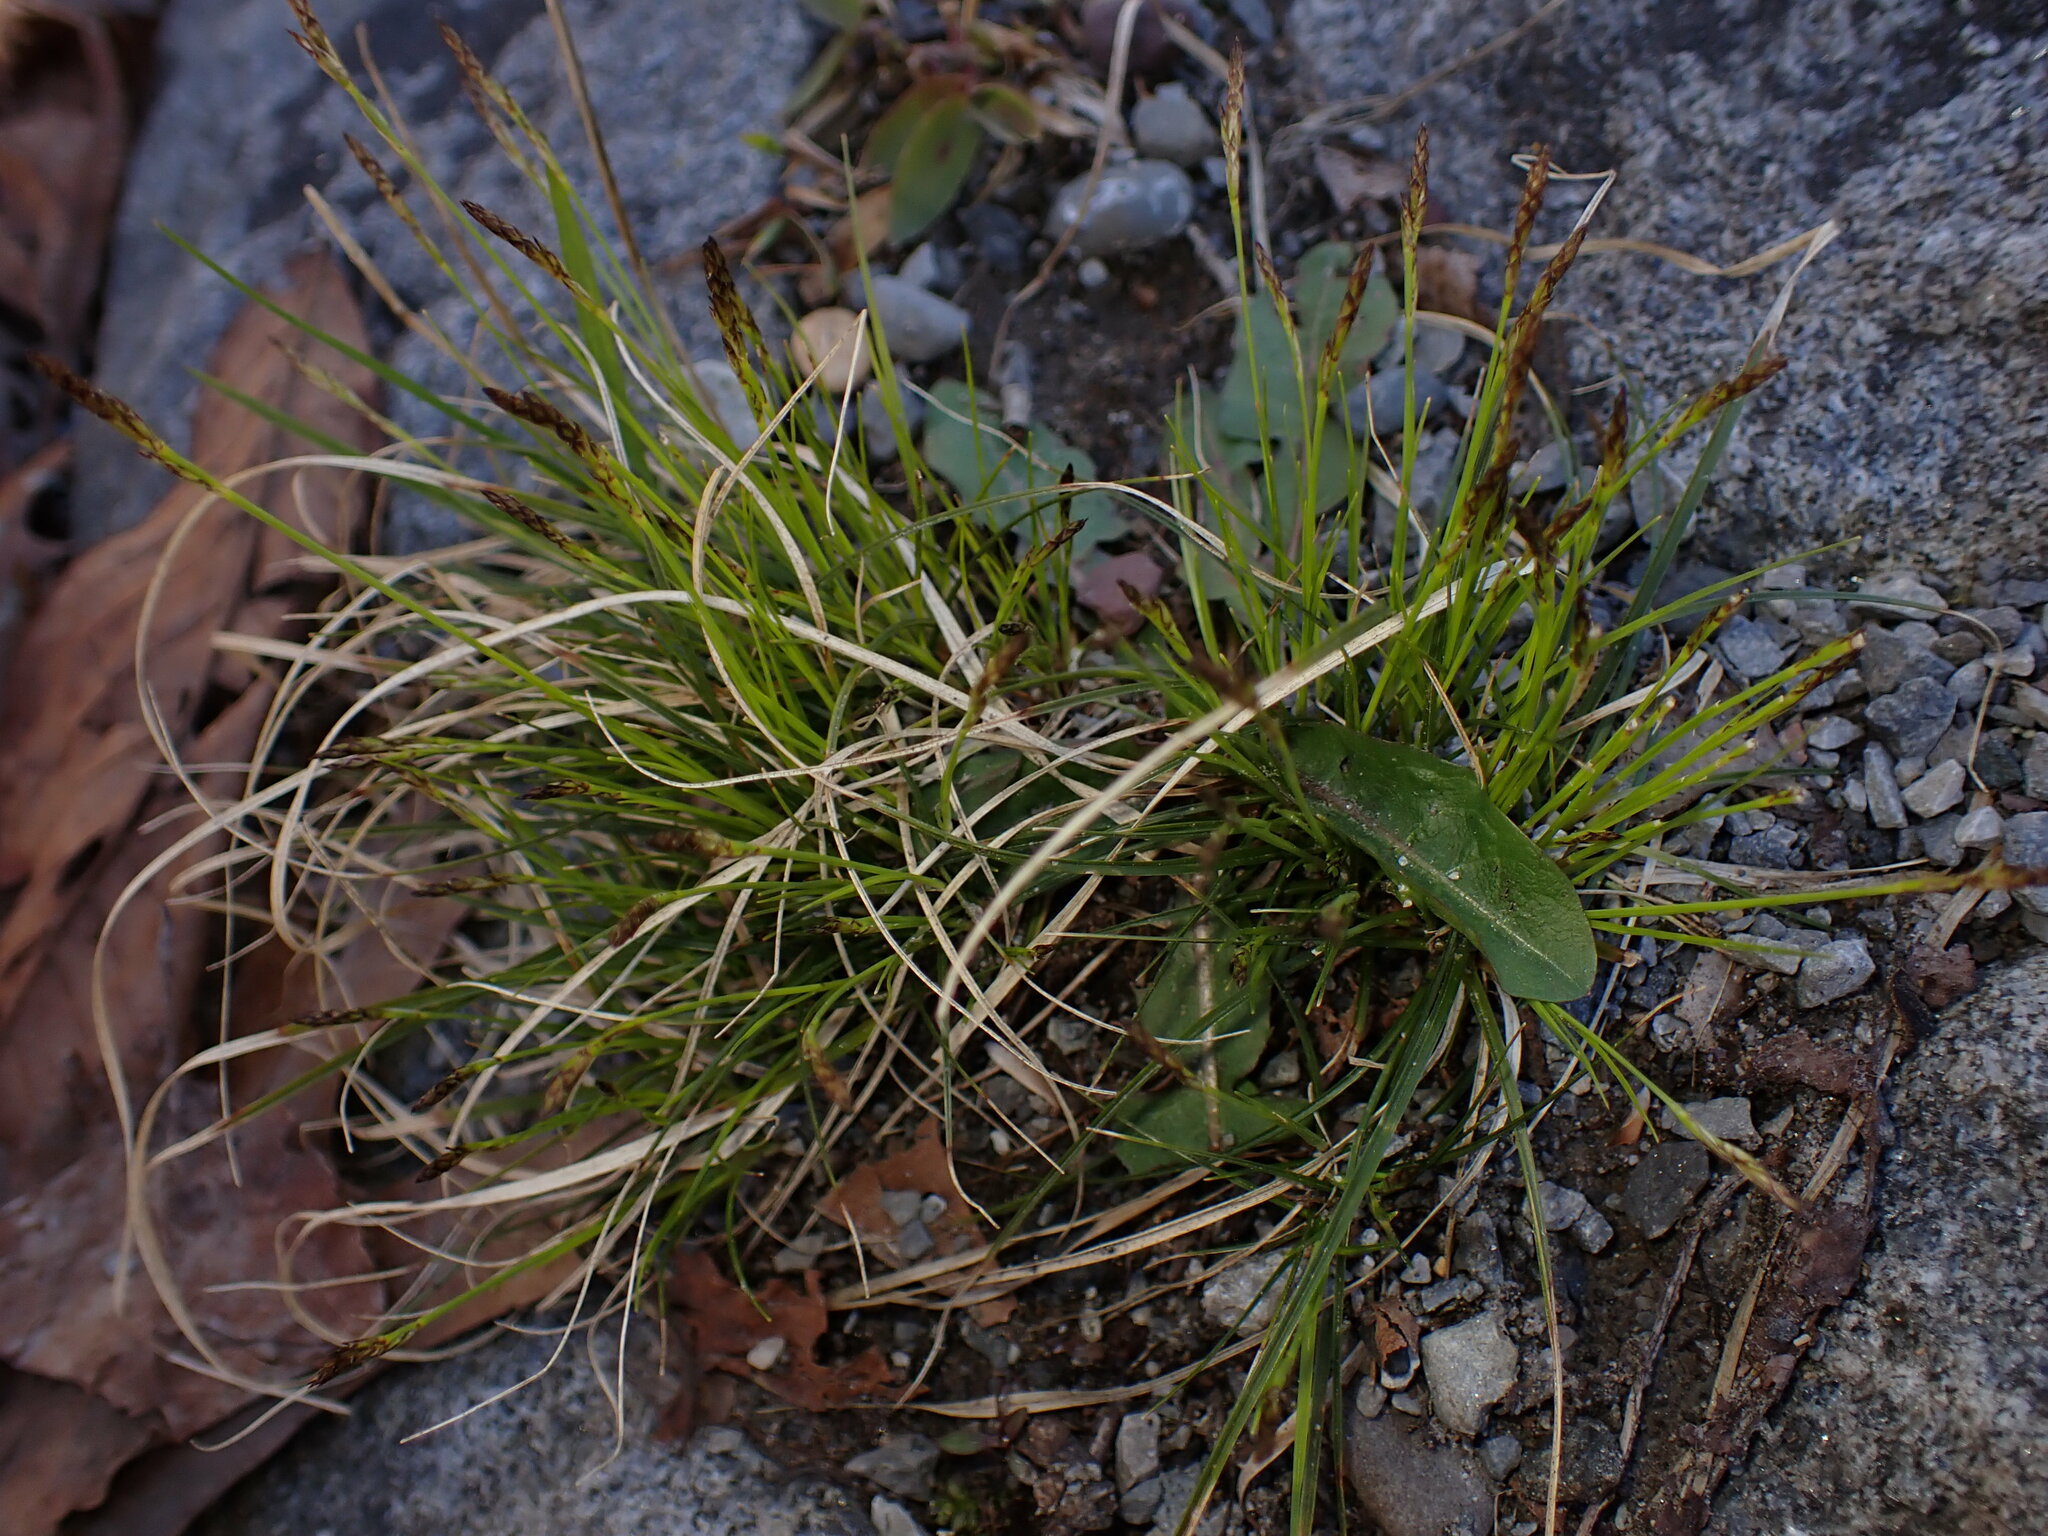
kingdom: Plantae
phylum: Tracheophyta
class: Liliopsida
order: Poales
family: Cyperaceae
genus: Carex
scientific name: Carex pensylvanica
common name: Common oak sedge
